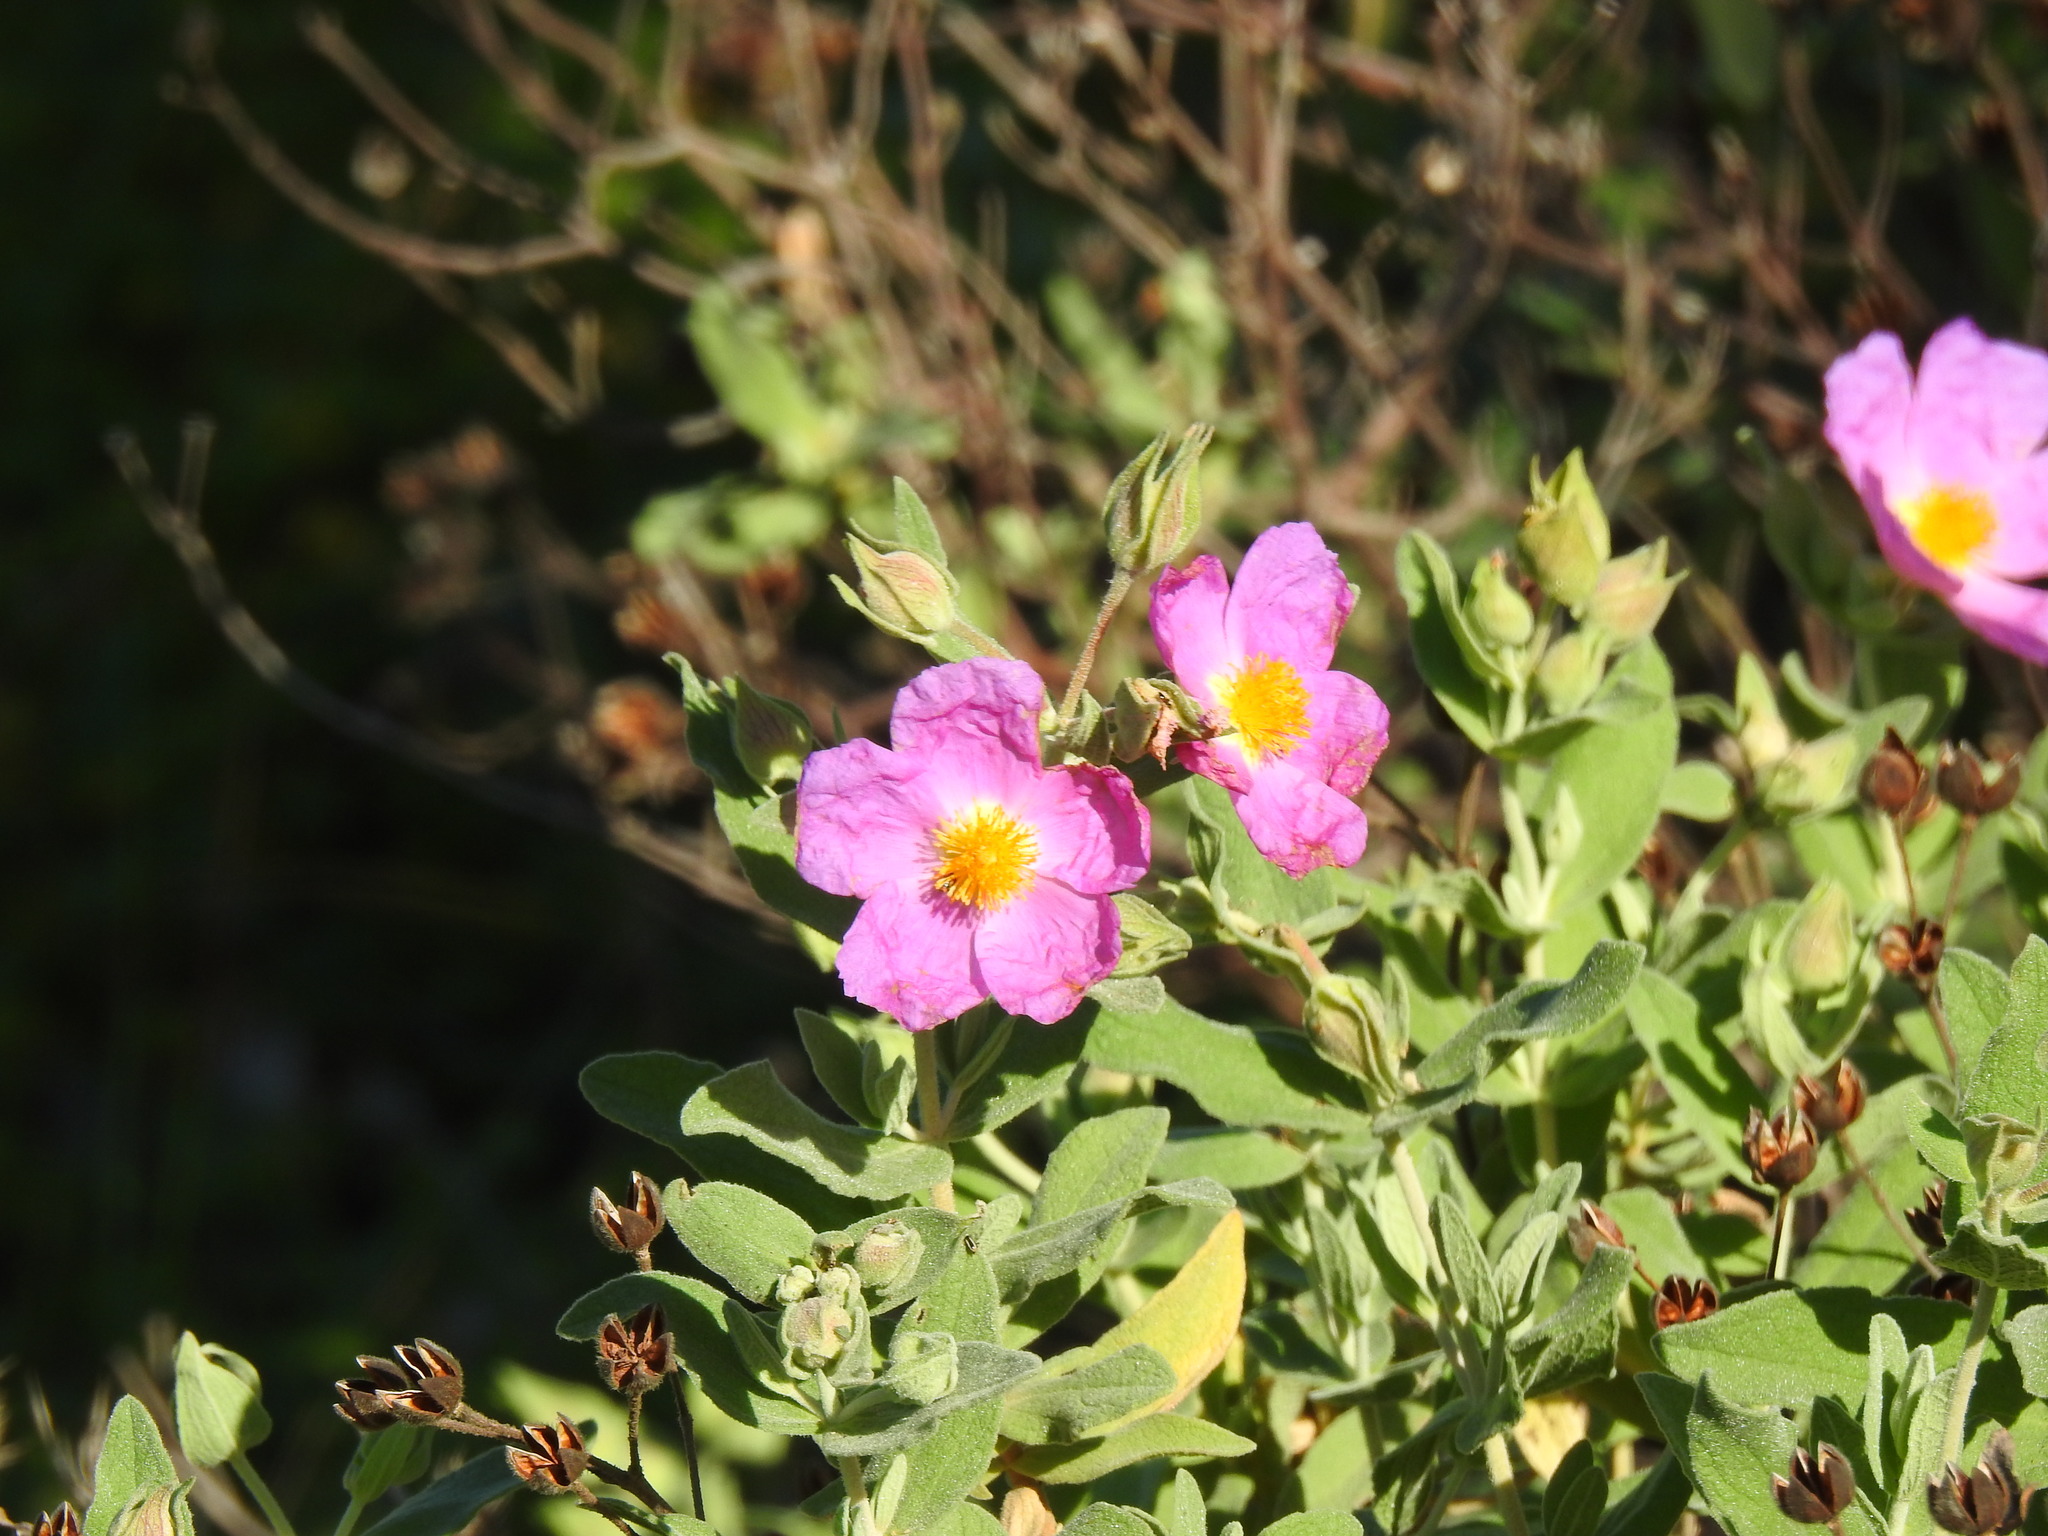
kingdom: Plantae
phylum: Tracheophyta
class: Magnoliopsida
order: Malvales
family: Cistaceae
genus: Cistus
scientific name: Cistus albidus
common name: White-leaf rock-rose
